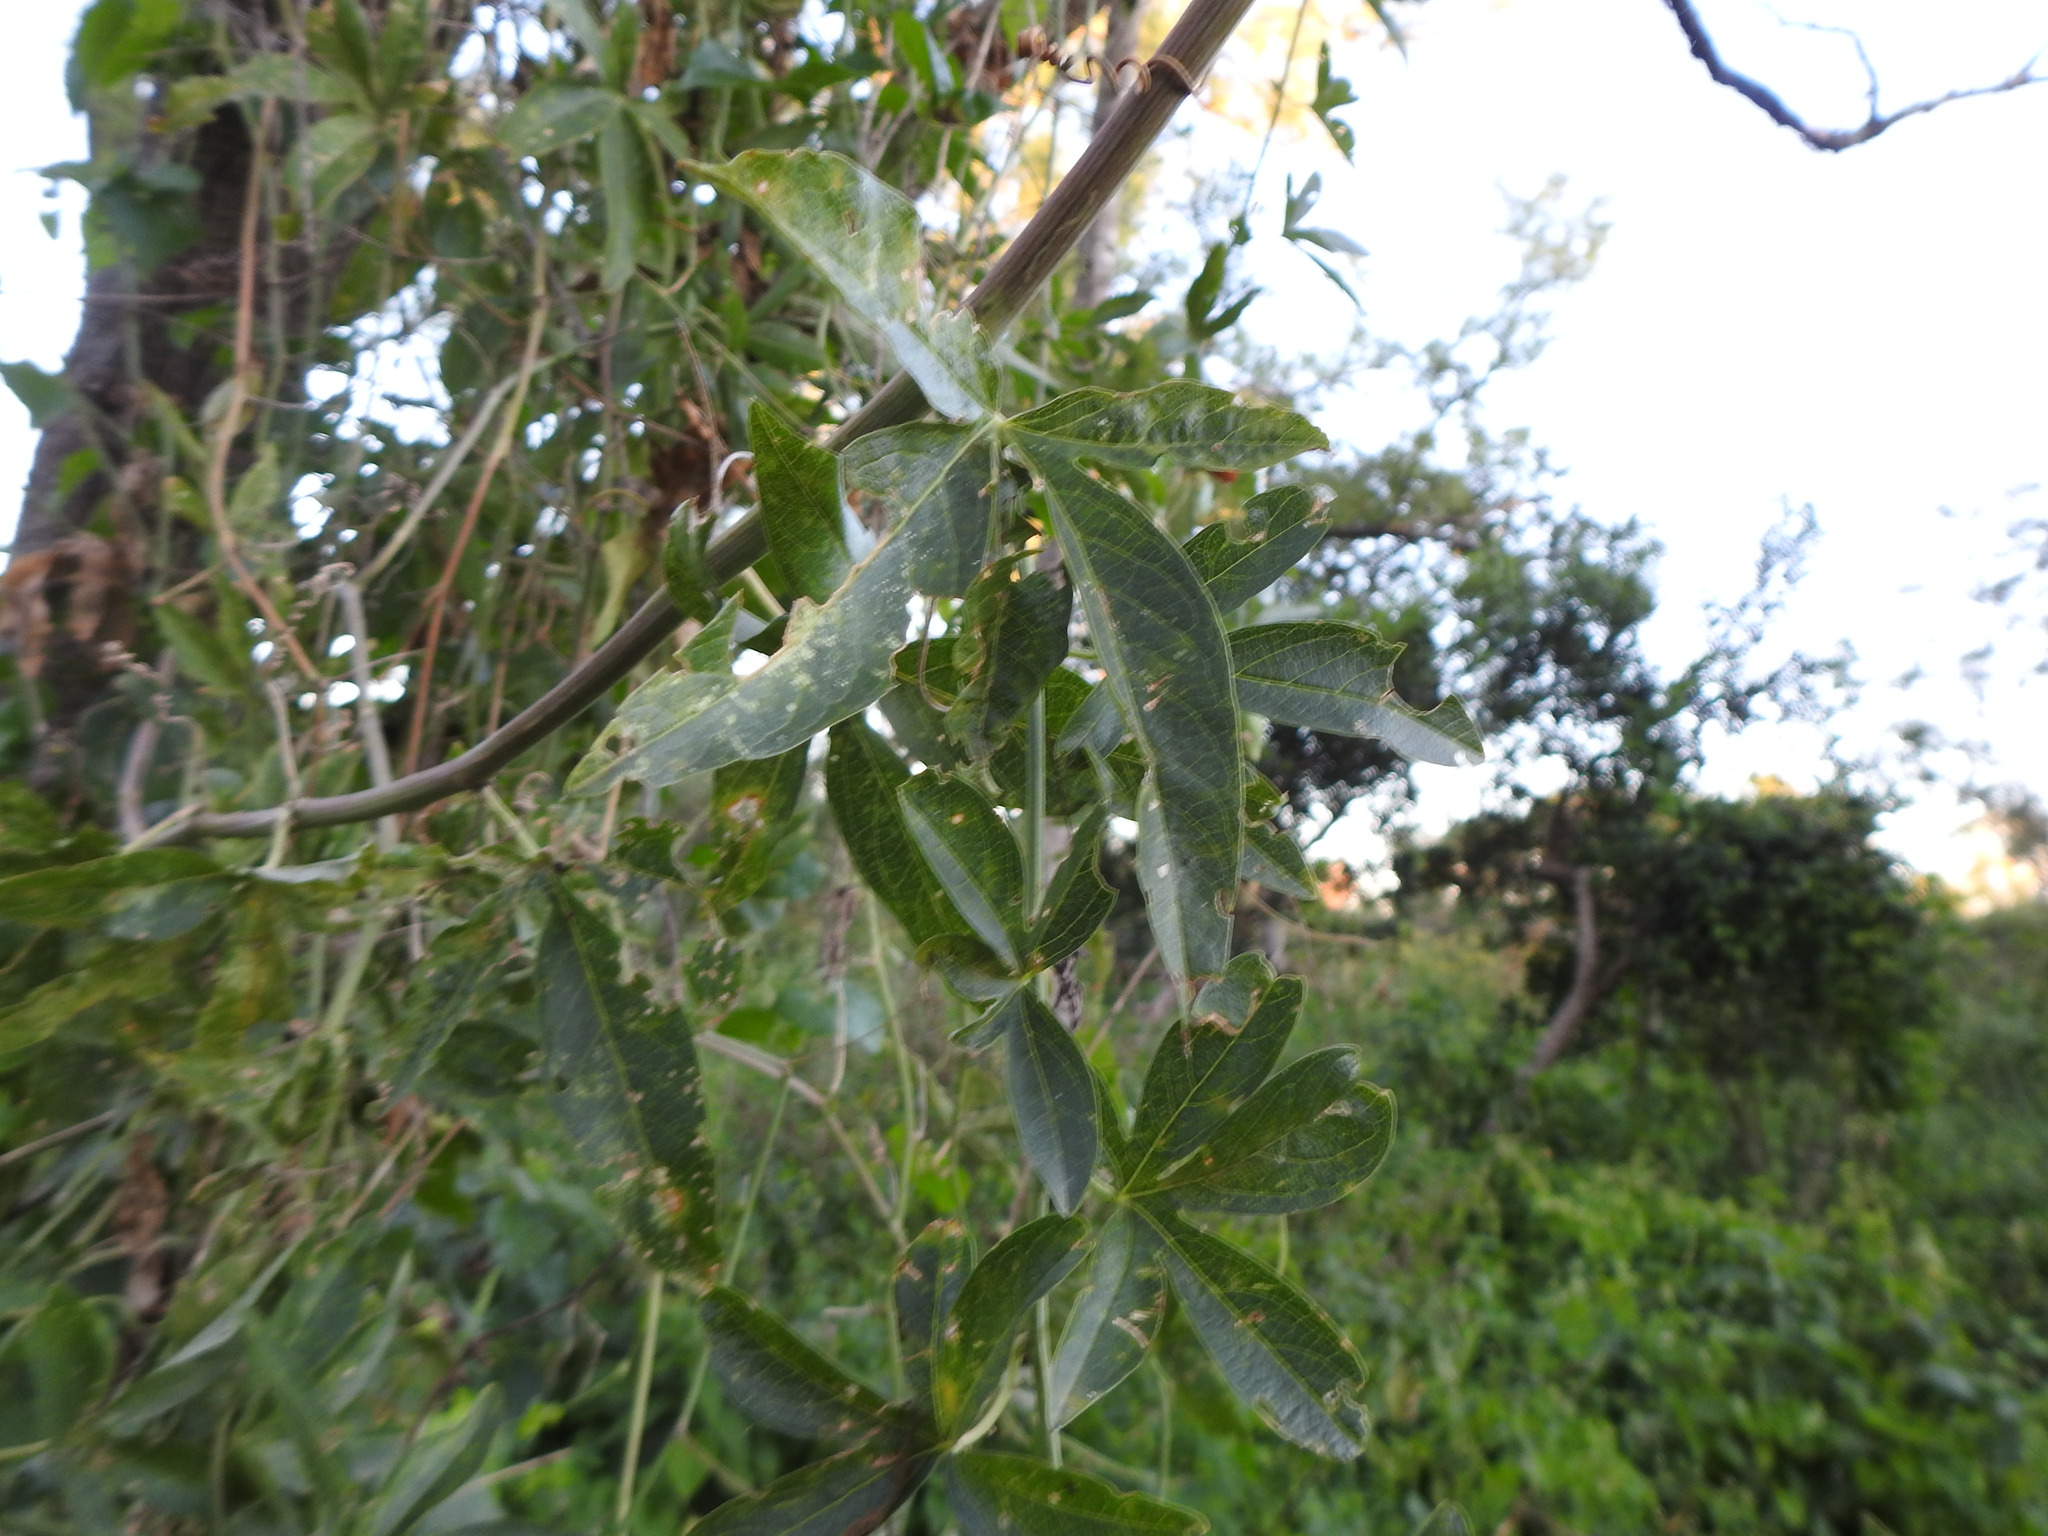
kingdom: Plantae
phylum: Tracheophyta
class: Magnoliopsida
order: Malpighiales
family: Passifloraceae
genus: Passiflora
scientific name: Passiflora caerulea
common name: Blue passionflower
